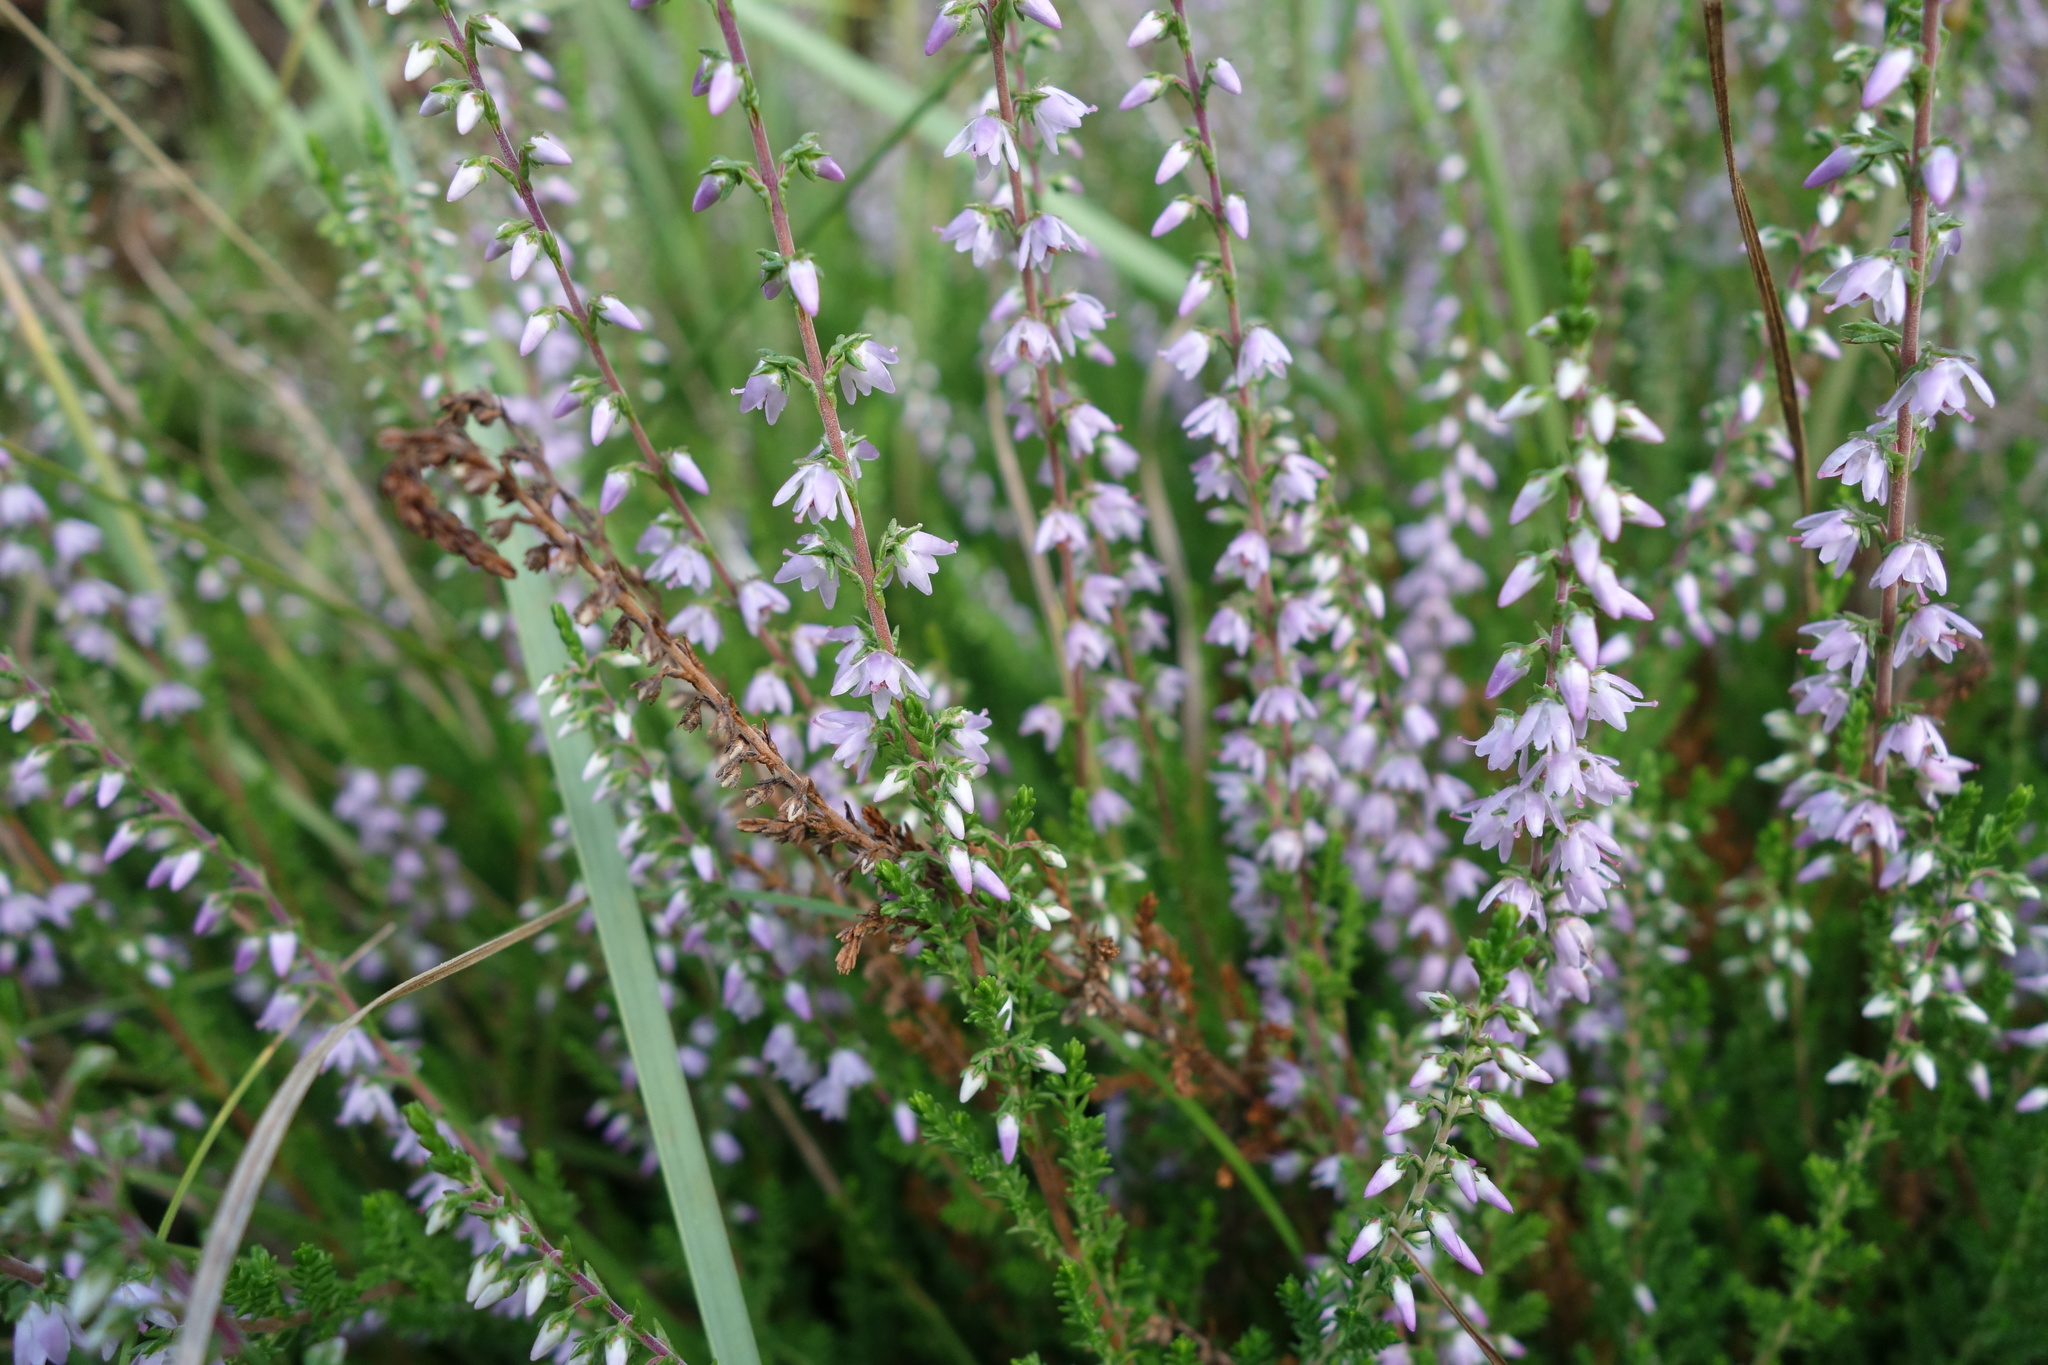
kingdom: Plantae
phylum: Tracheophyta
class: Magnoliopsida
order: Ericales
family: Ericaceae
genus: Calluna
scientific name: Calluna vulgaris
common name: Heather
